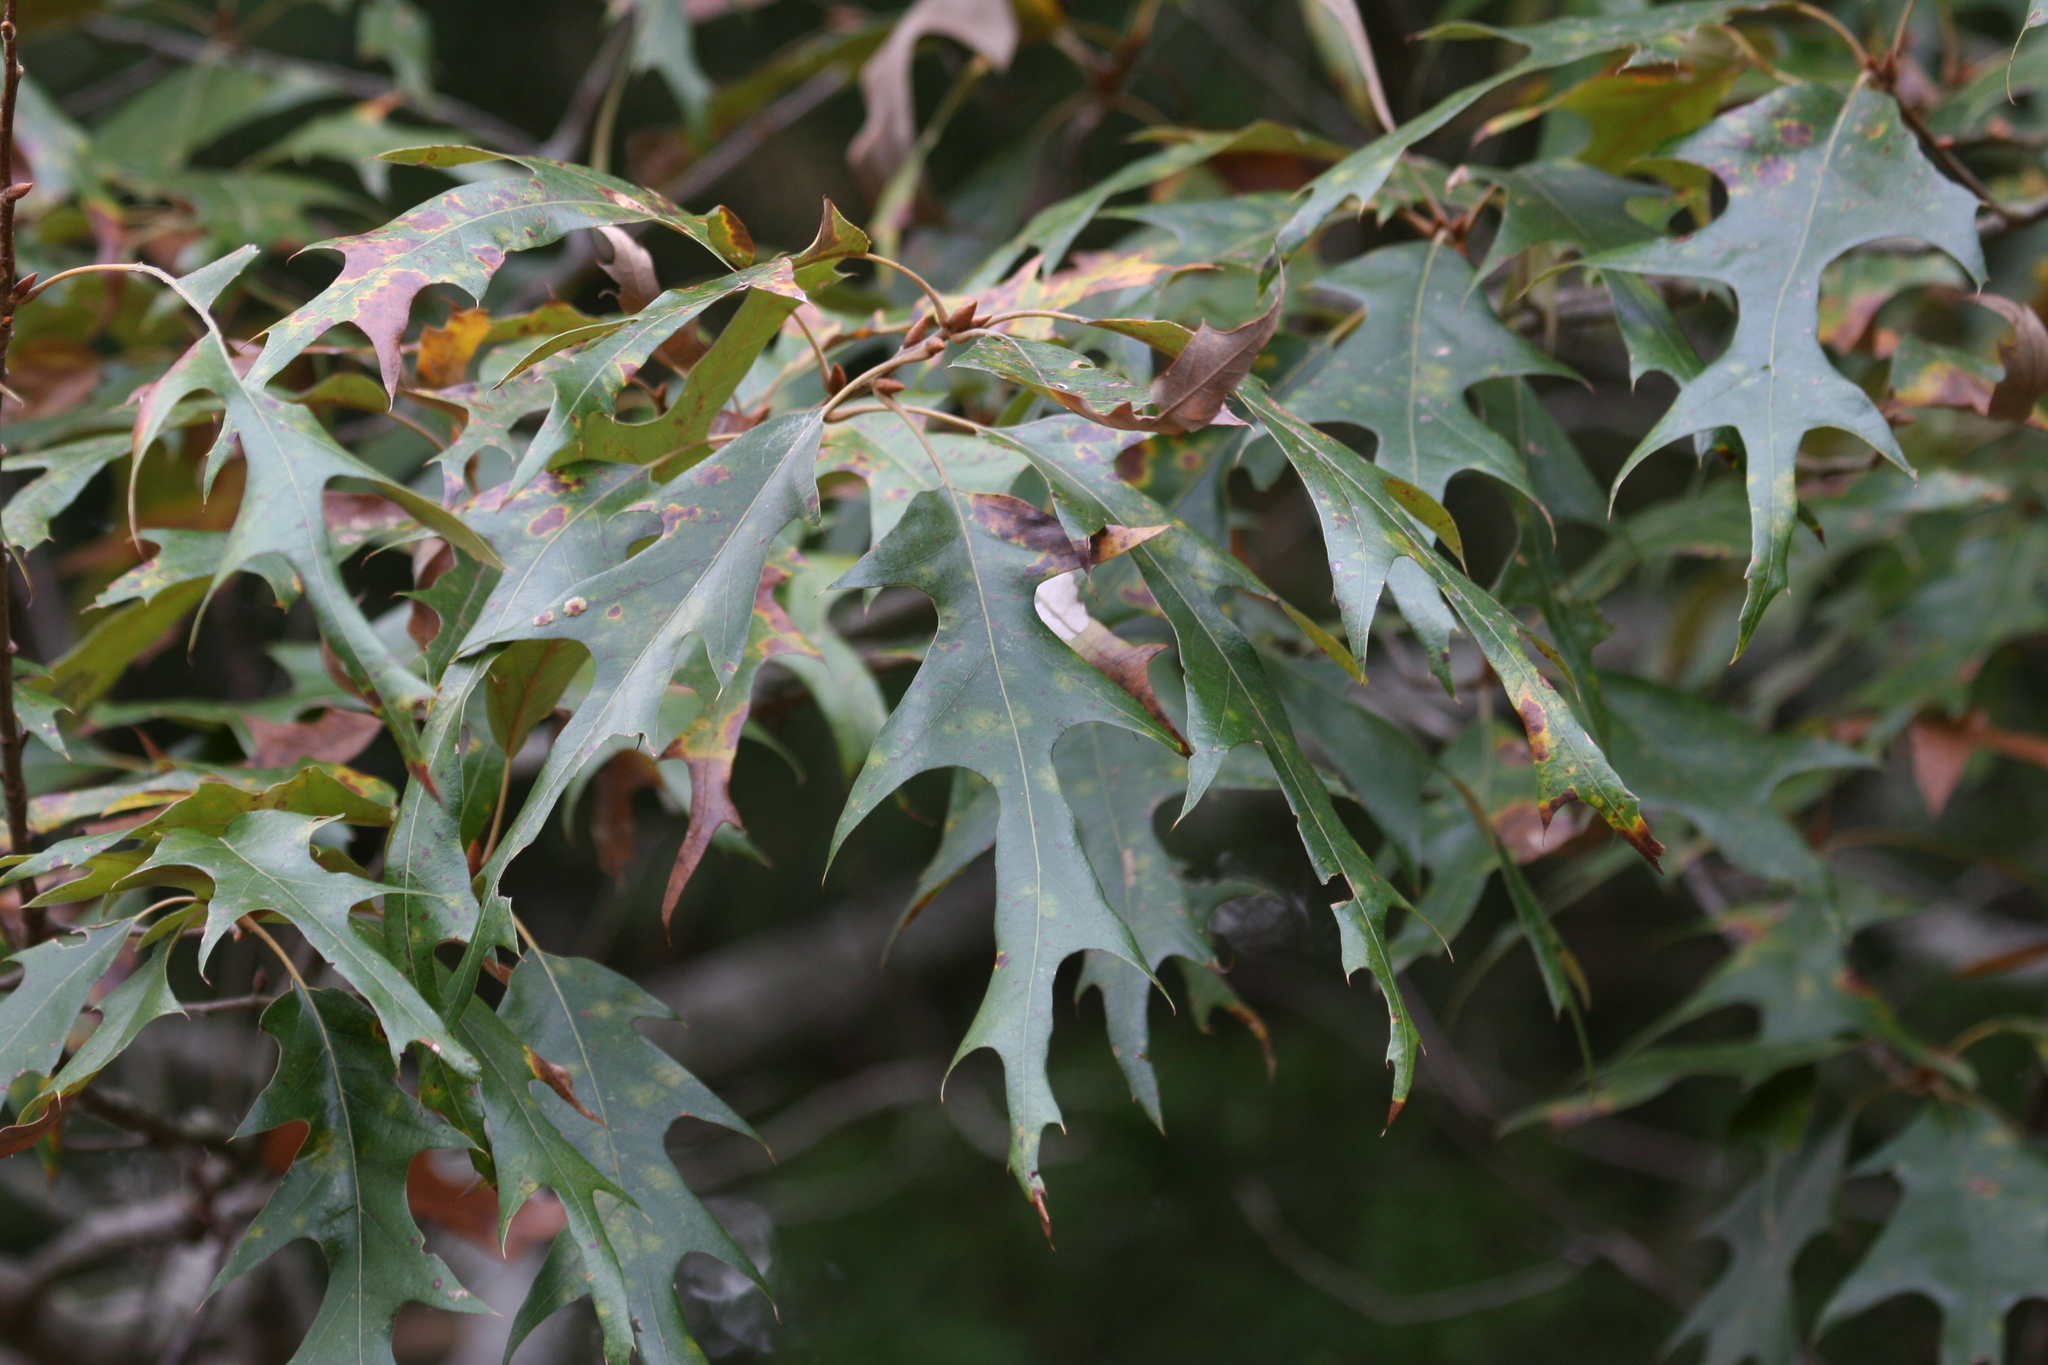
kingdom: Plantae
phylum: Tracheophyta
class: Magnoliopsida
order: Fagales
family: Fagaceae
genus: Quercus
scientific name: Quercus falcata
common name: Southern red oak
